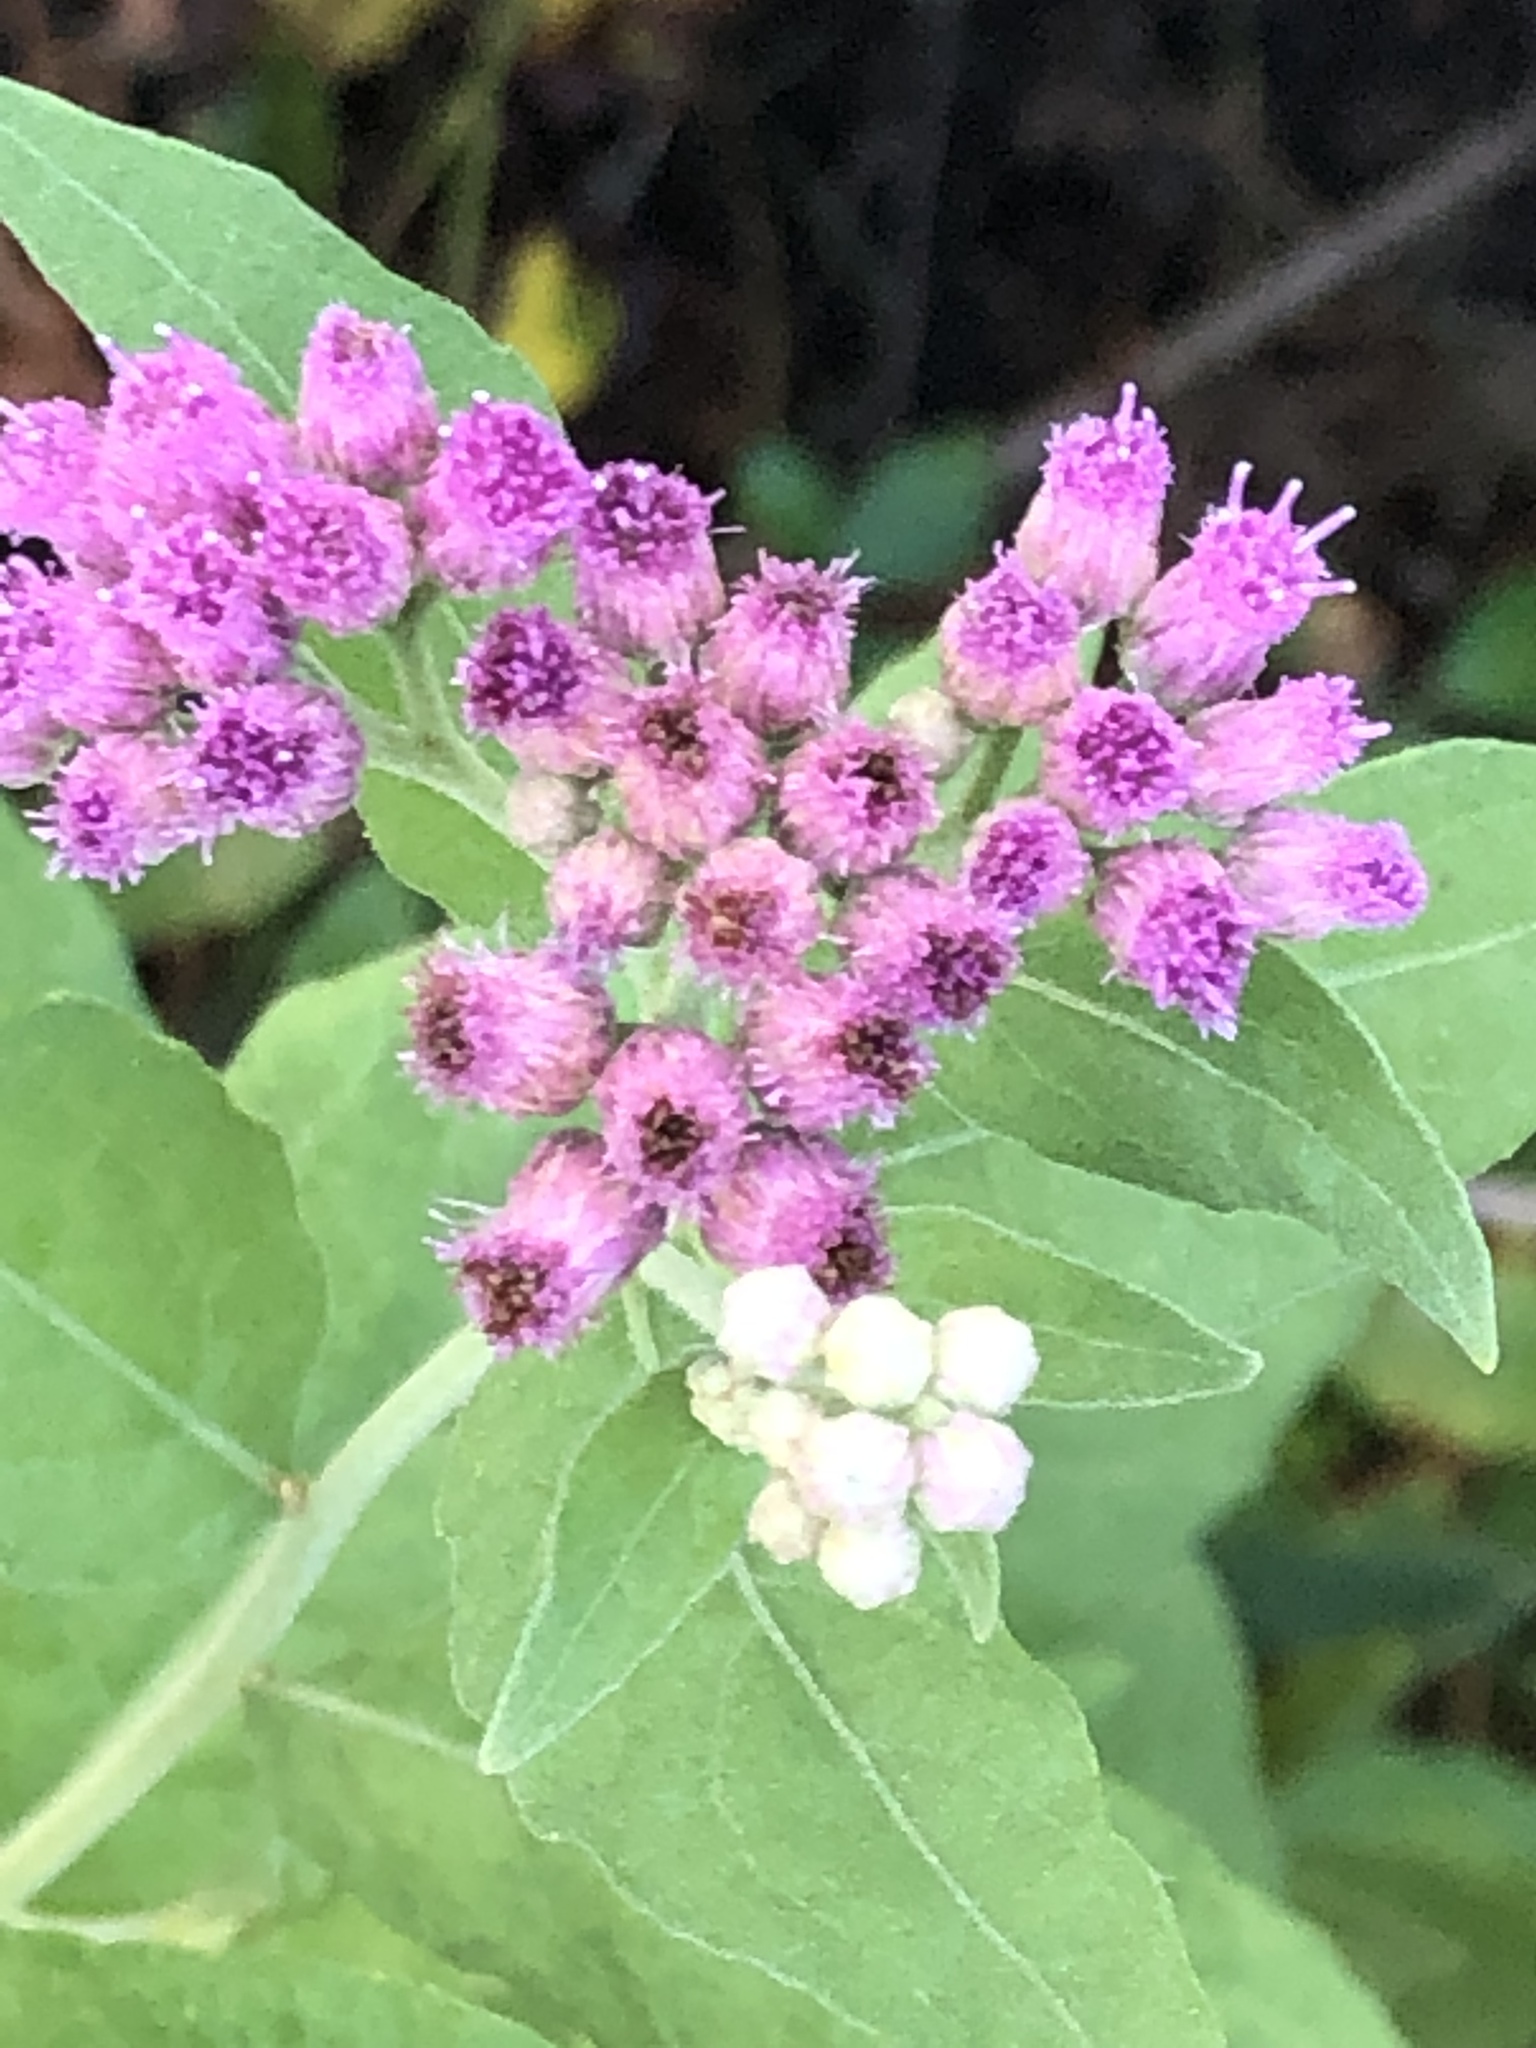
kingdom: Plantae
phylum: Tracheophyta
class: Magnoliopsida
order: Asterales
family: Asteraceae
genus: Pluchea
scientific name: Pluchea odorata
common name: Saltmarsh fleabane
